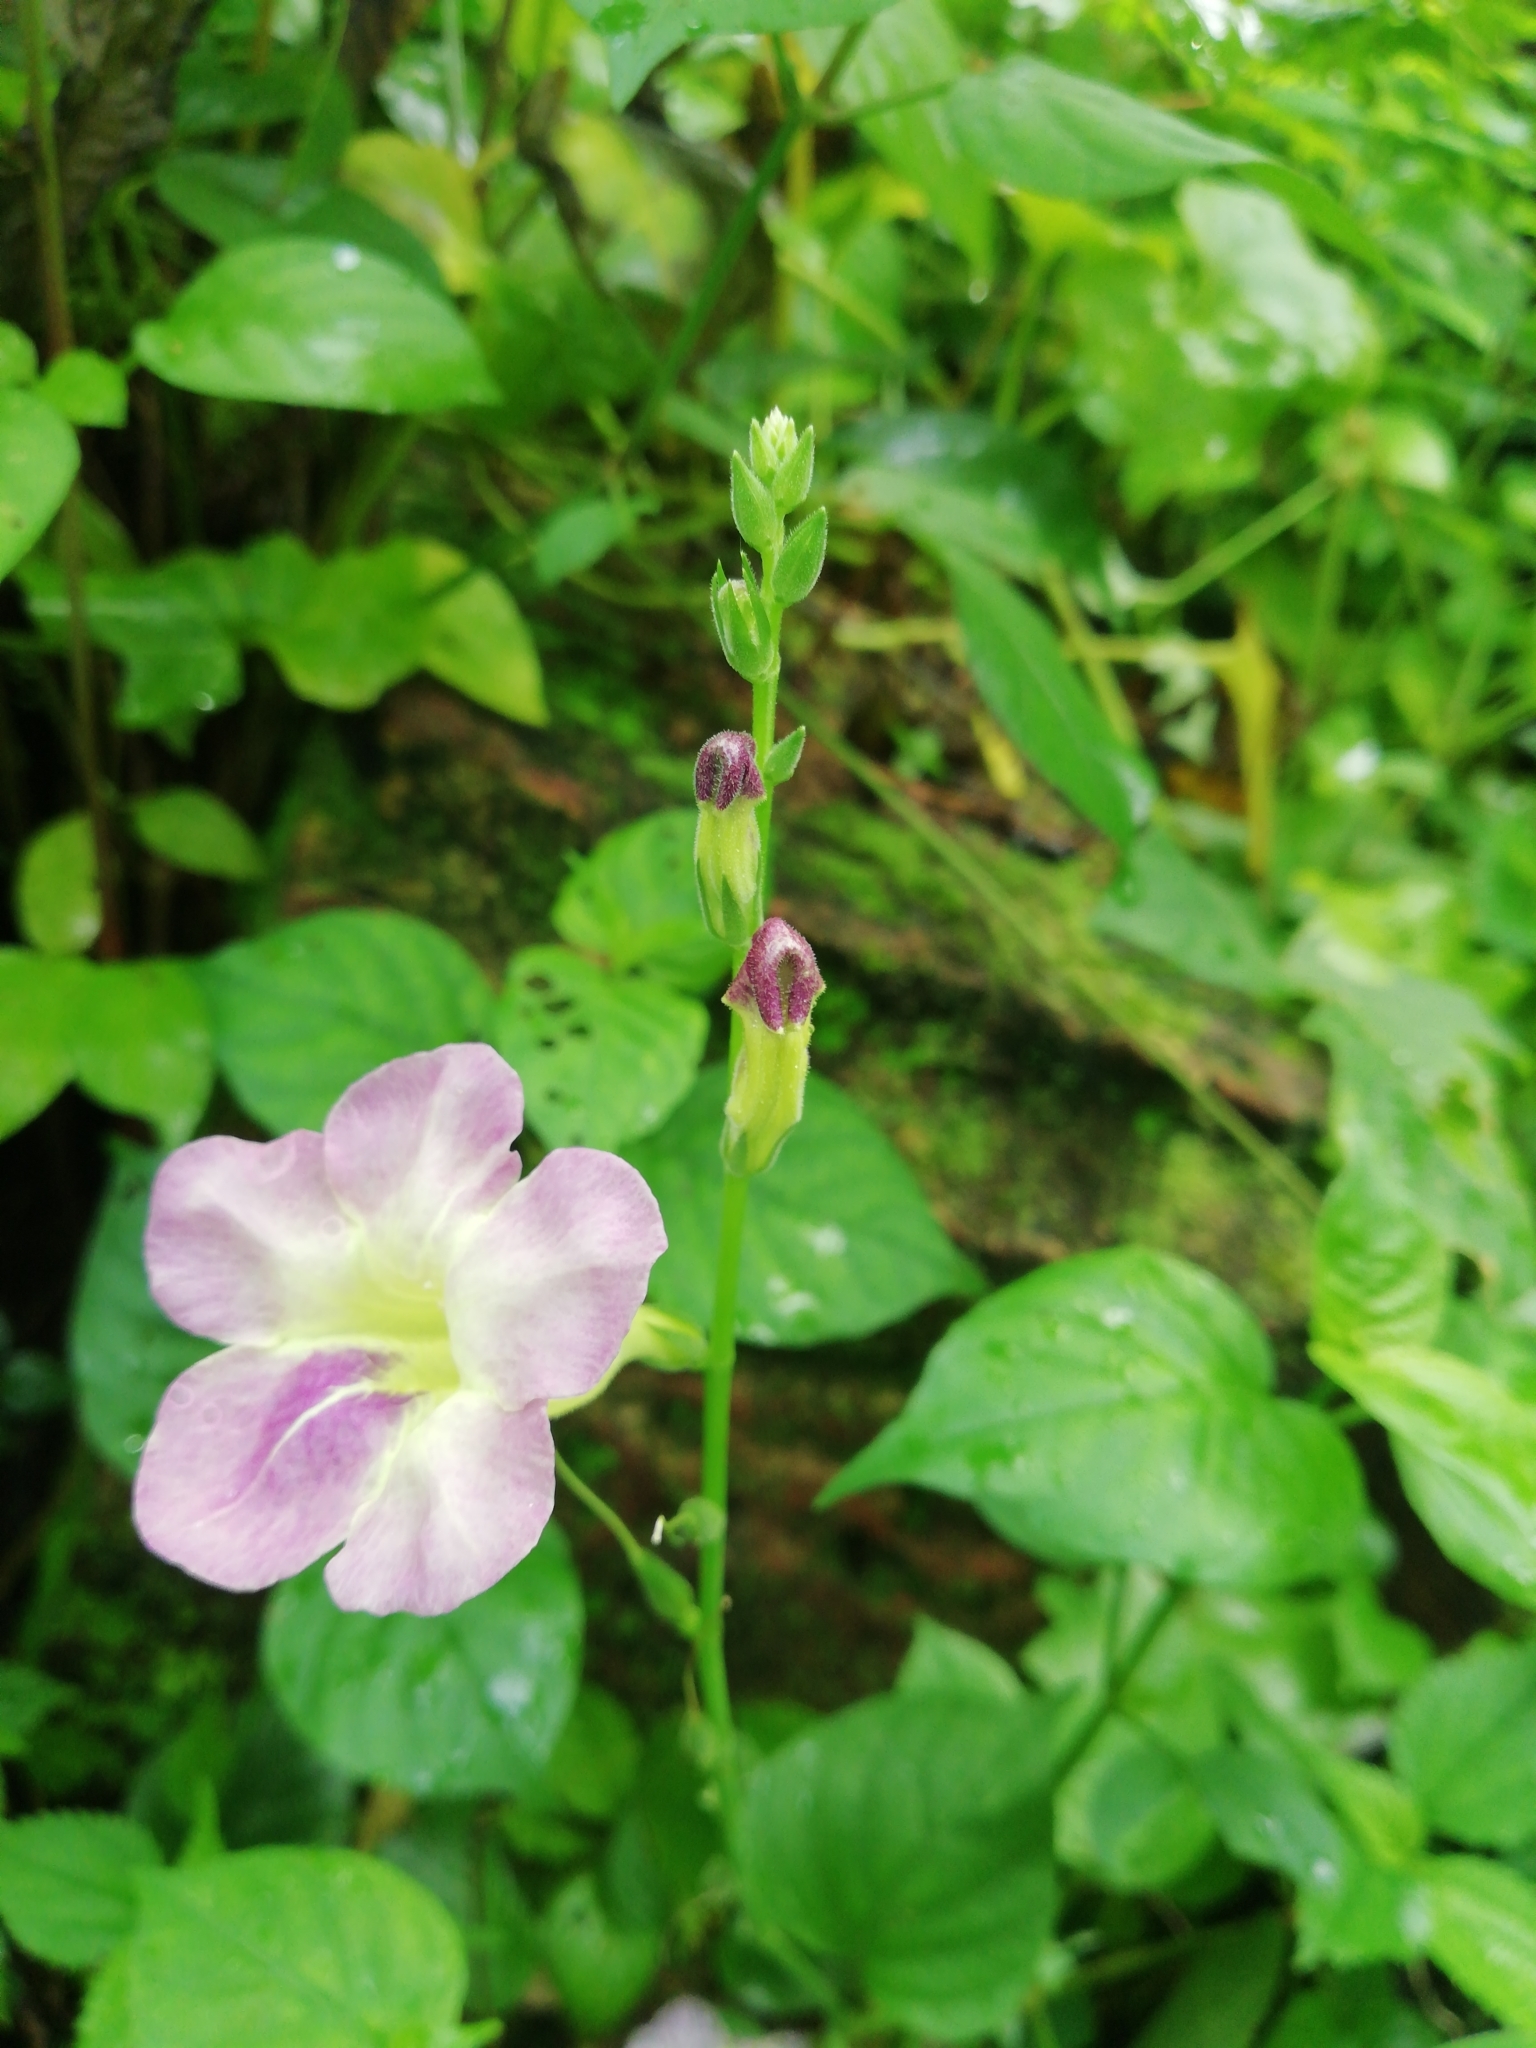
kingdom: Plantae
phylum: Tracheophyta
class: Magnoliopsida
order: Lamiales
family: Acanthaceae
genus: Asystasia
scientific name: Asystasia gangetica
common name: Chinese violet
